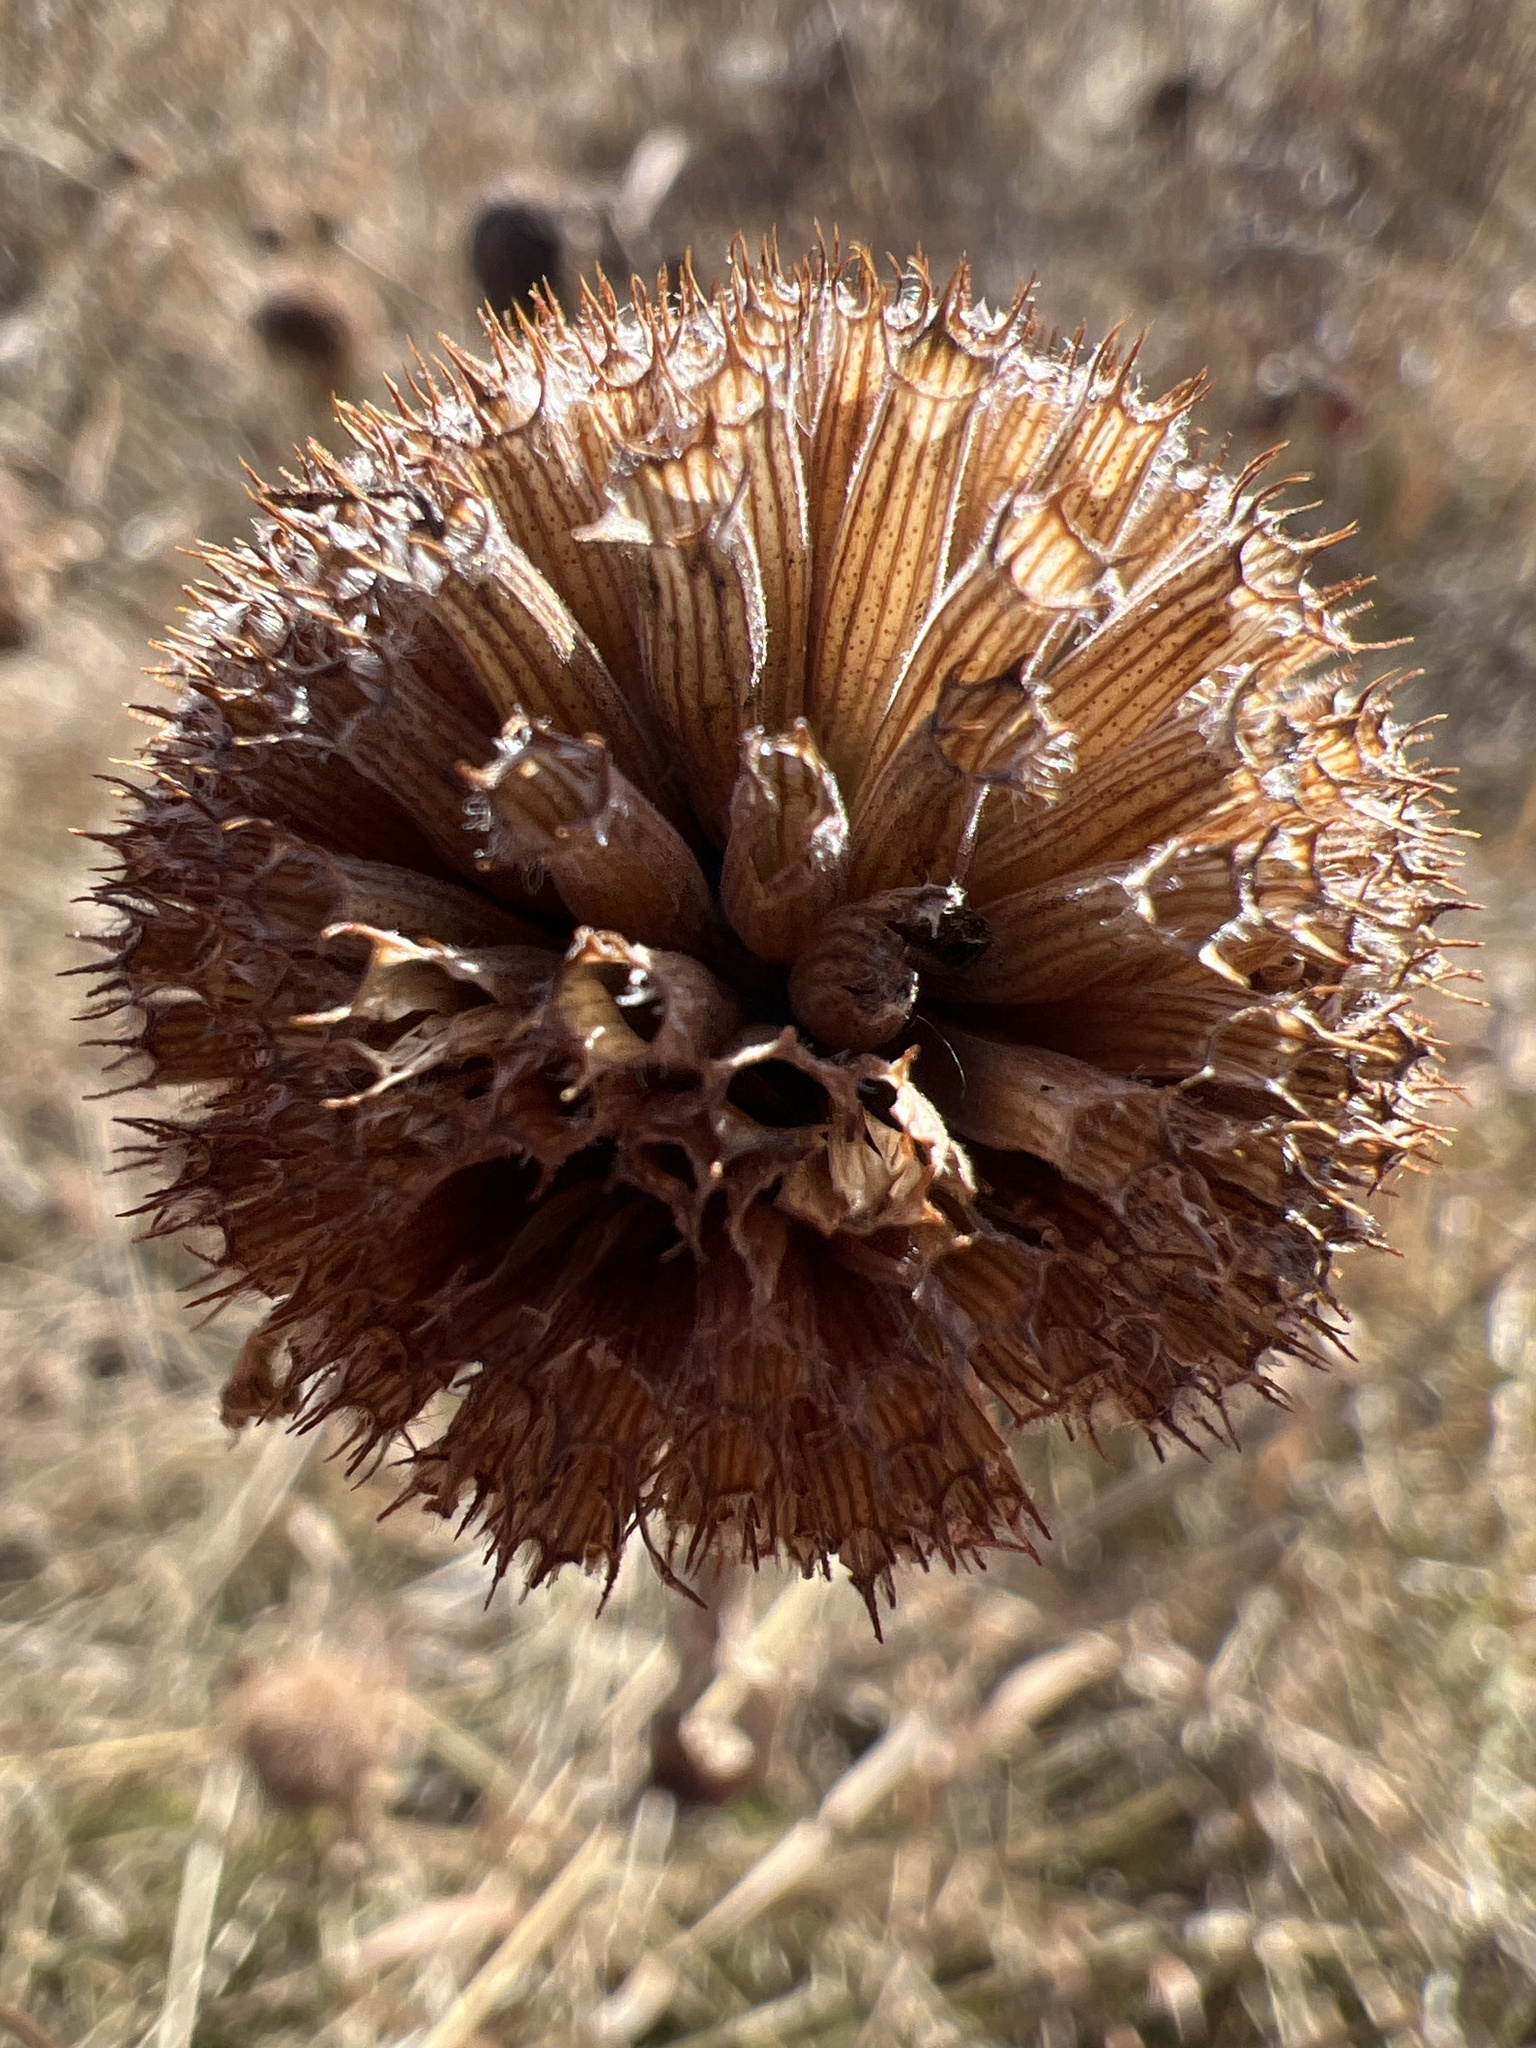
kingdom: Plantae
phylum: Tracheophyta
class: Magnoliopsida
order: Lamiales
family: Lamiaceae
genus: Monarda
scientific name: Monarda fistulosa
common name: Purple beebalm
